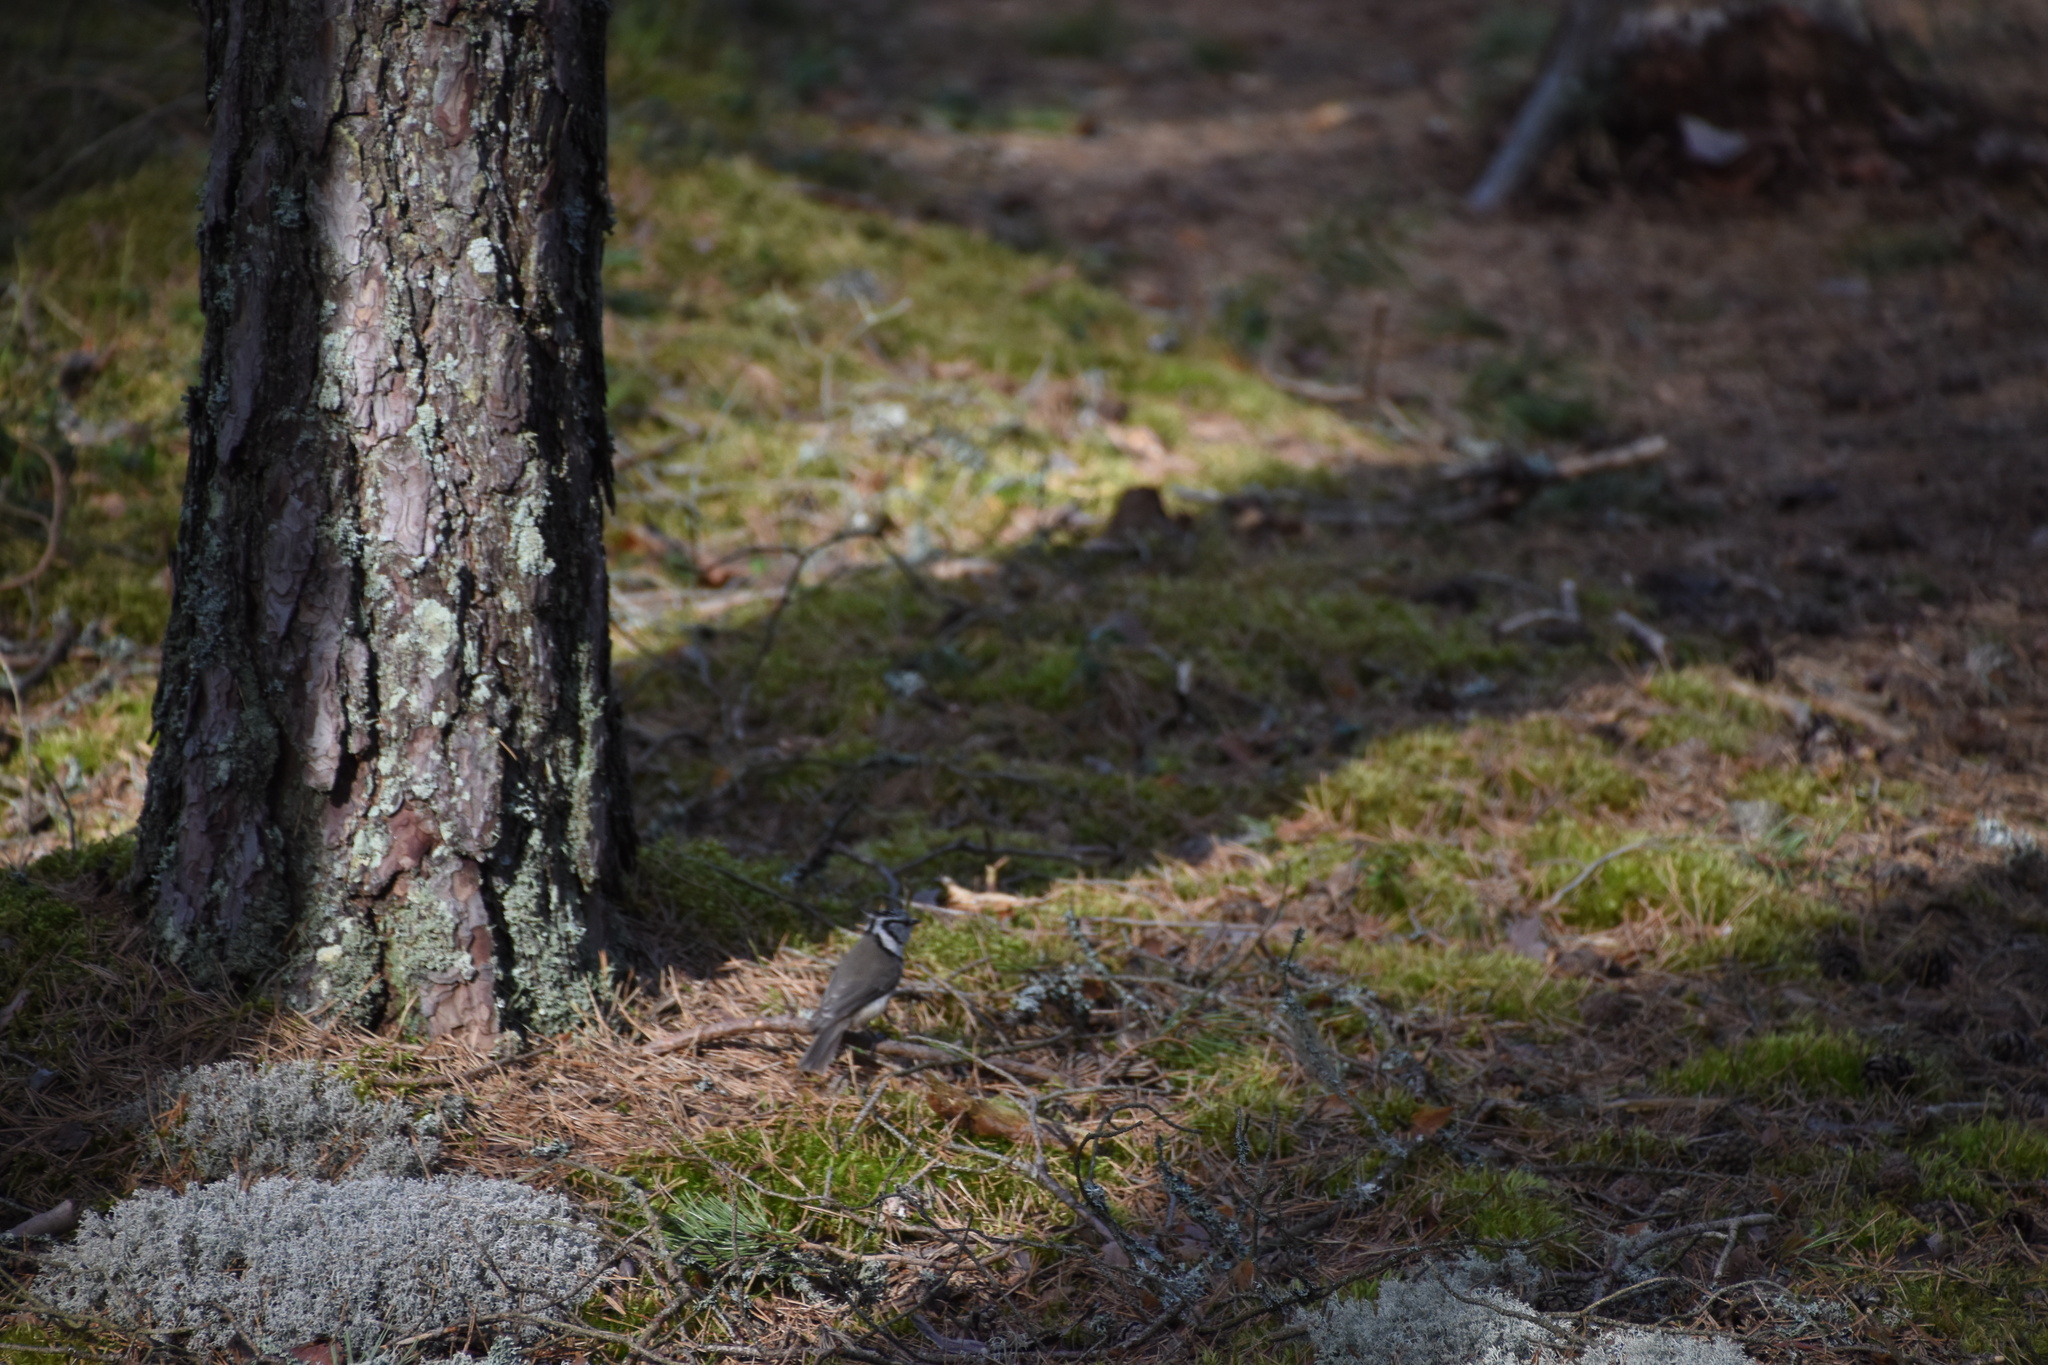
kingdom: Animalia
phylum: Chordata
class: Aves
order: Passeriformes
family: Paridae
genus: Lophophanes
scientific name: Lophophanes cristatus
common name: European crested tit
